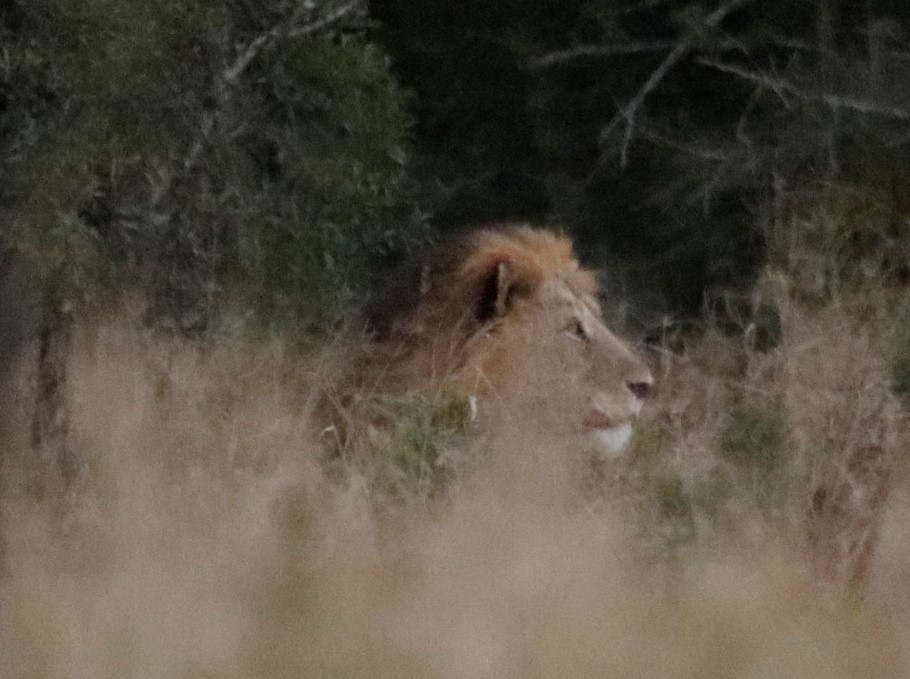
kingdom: Animalia
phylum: Chordata
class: Mammalia
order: Carnivora
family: Felidae
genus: Panthera
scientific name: Panthera leo
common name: Lion
